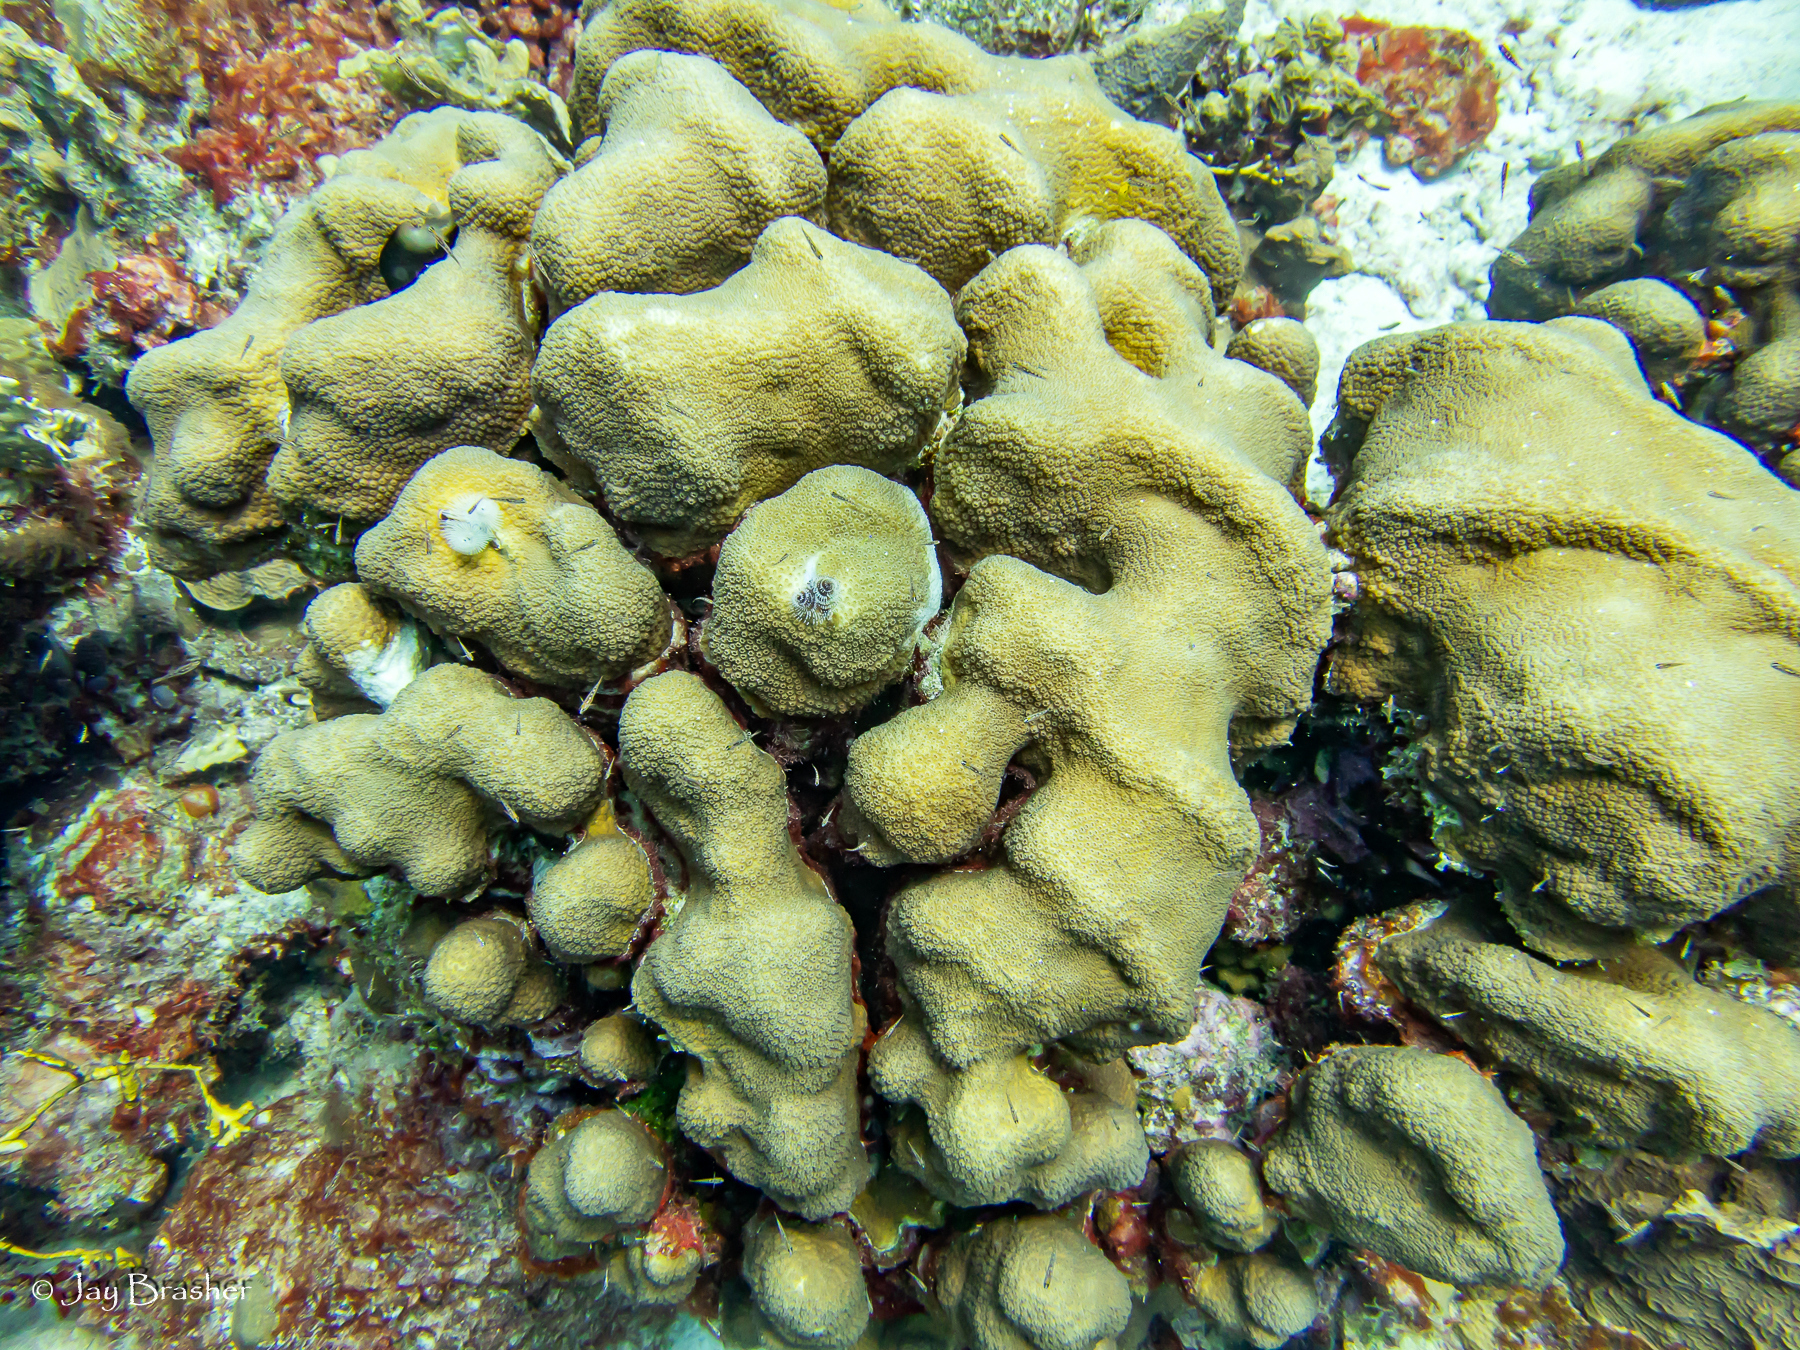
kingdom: Animalia
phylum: Cnidaria
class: Anthozoa
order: Scleractinia
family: Merulinidae
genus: Orbicella
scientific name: Orbicella annularis
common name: Boulder star coral
